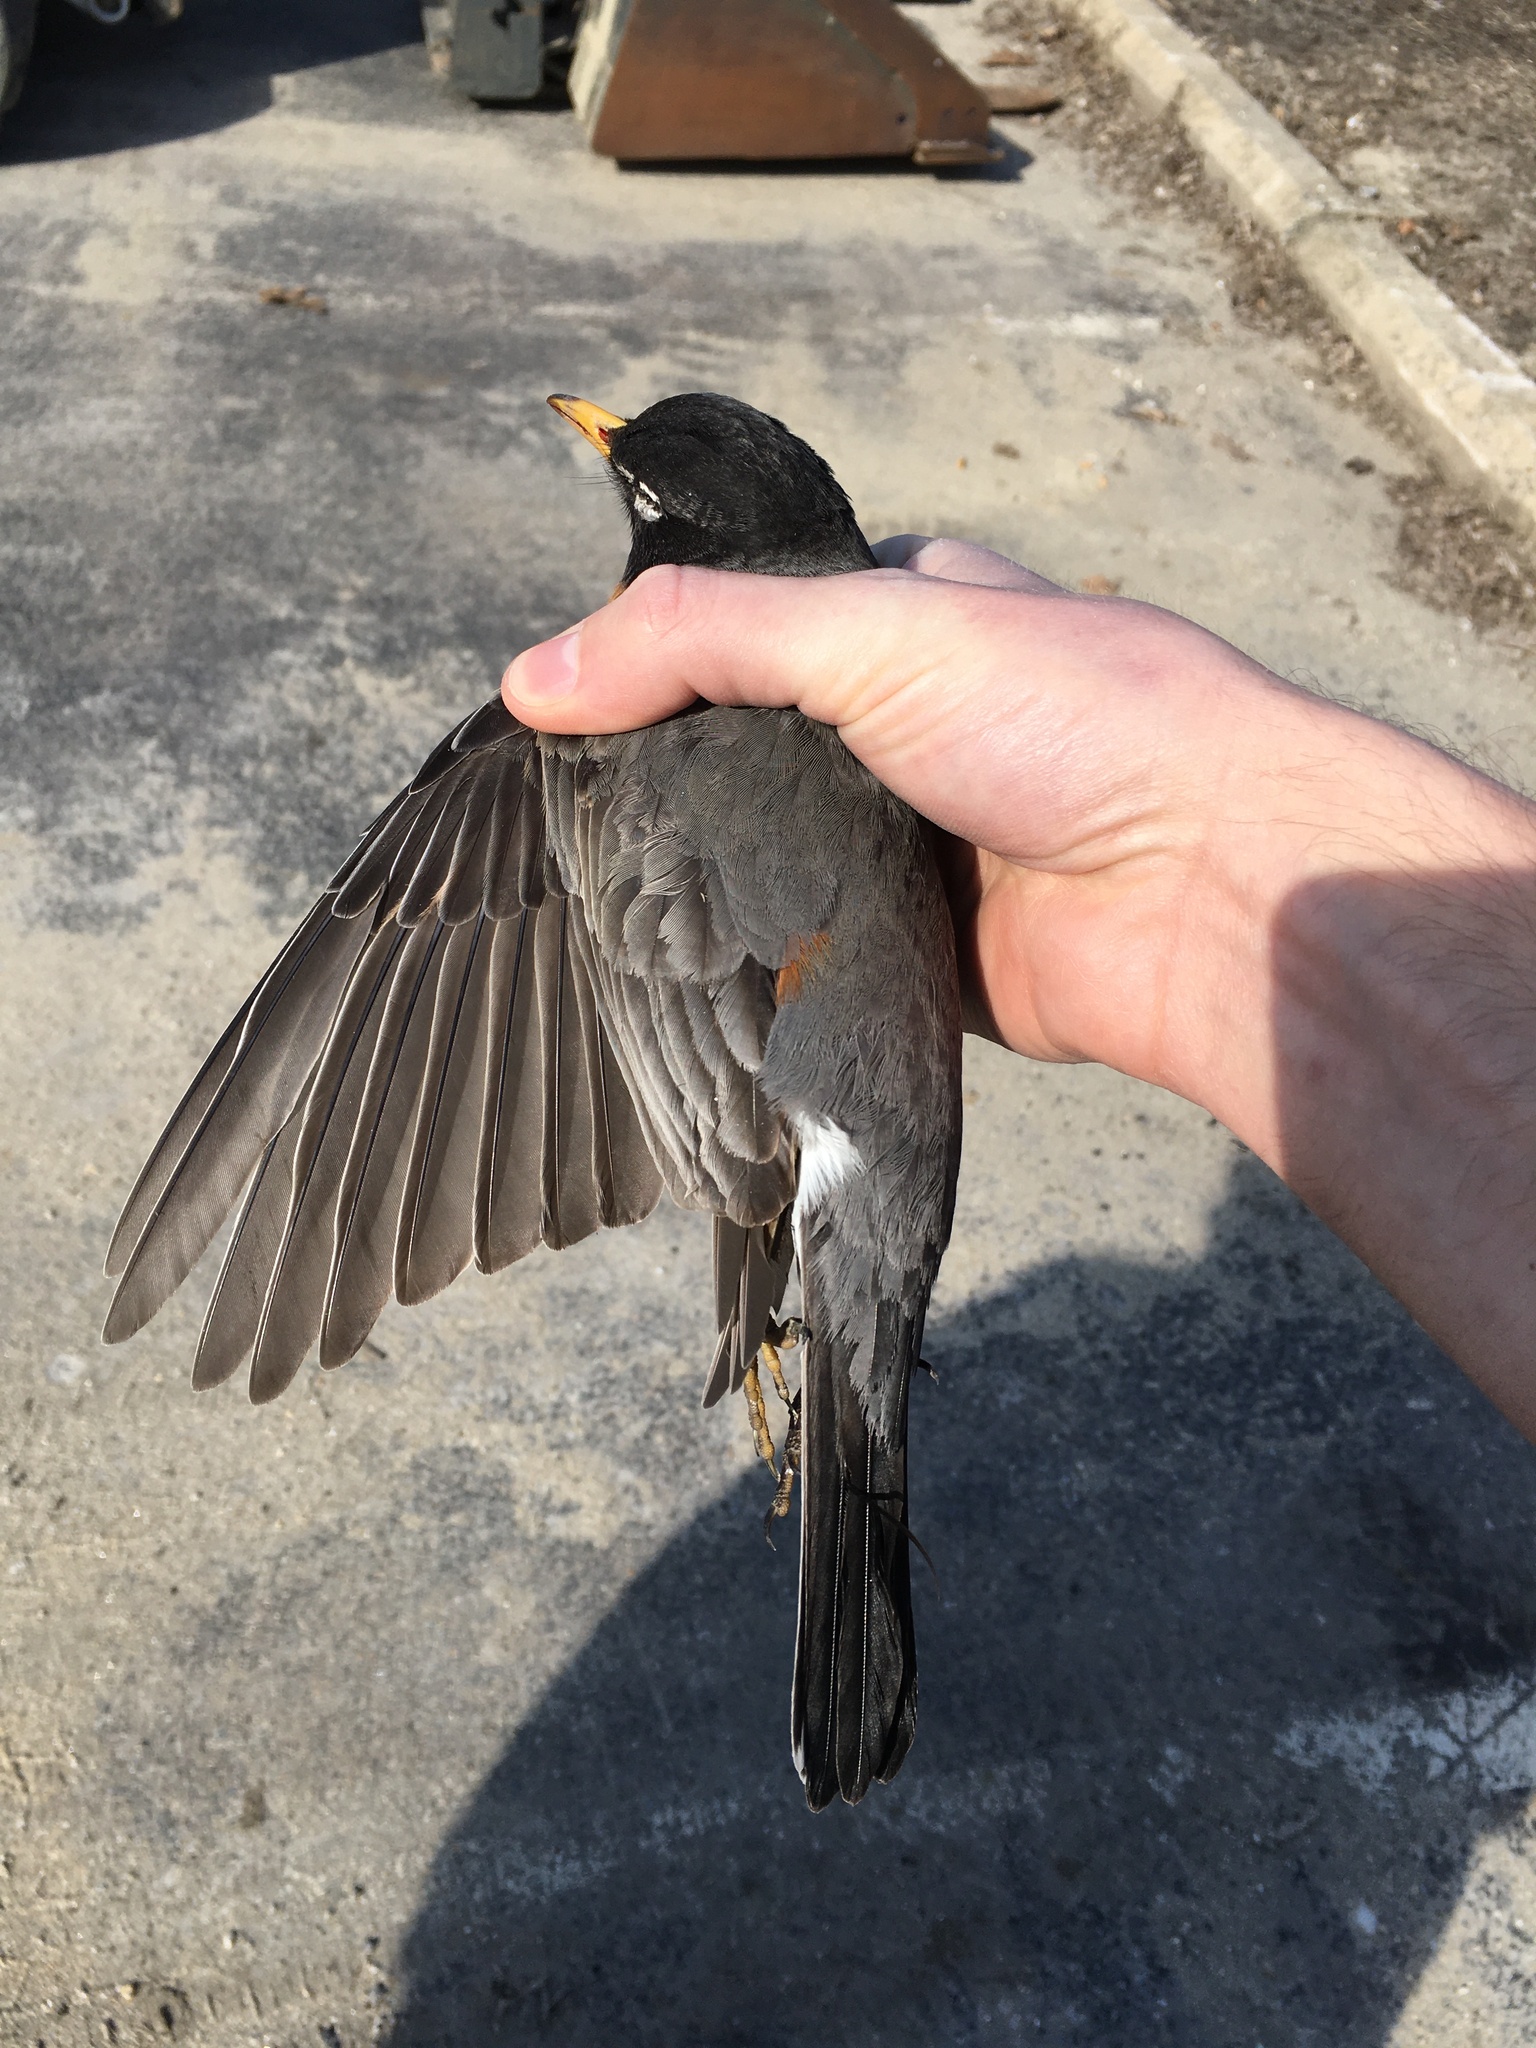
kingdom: Animalia
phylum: Chordata
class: Aves
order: Passeriformes
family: Turdidae
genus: Turdus
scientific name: Turdus migratorius
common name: American robin
